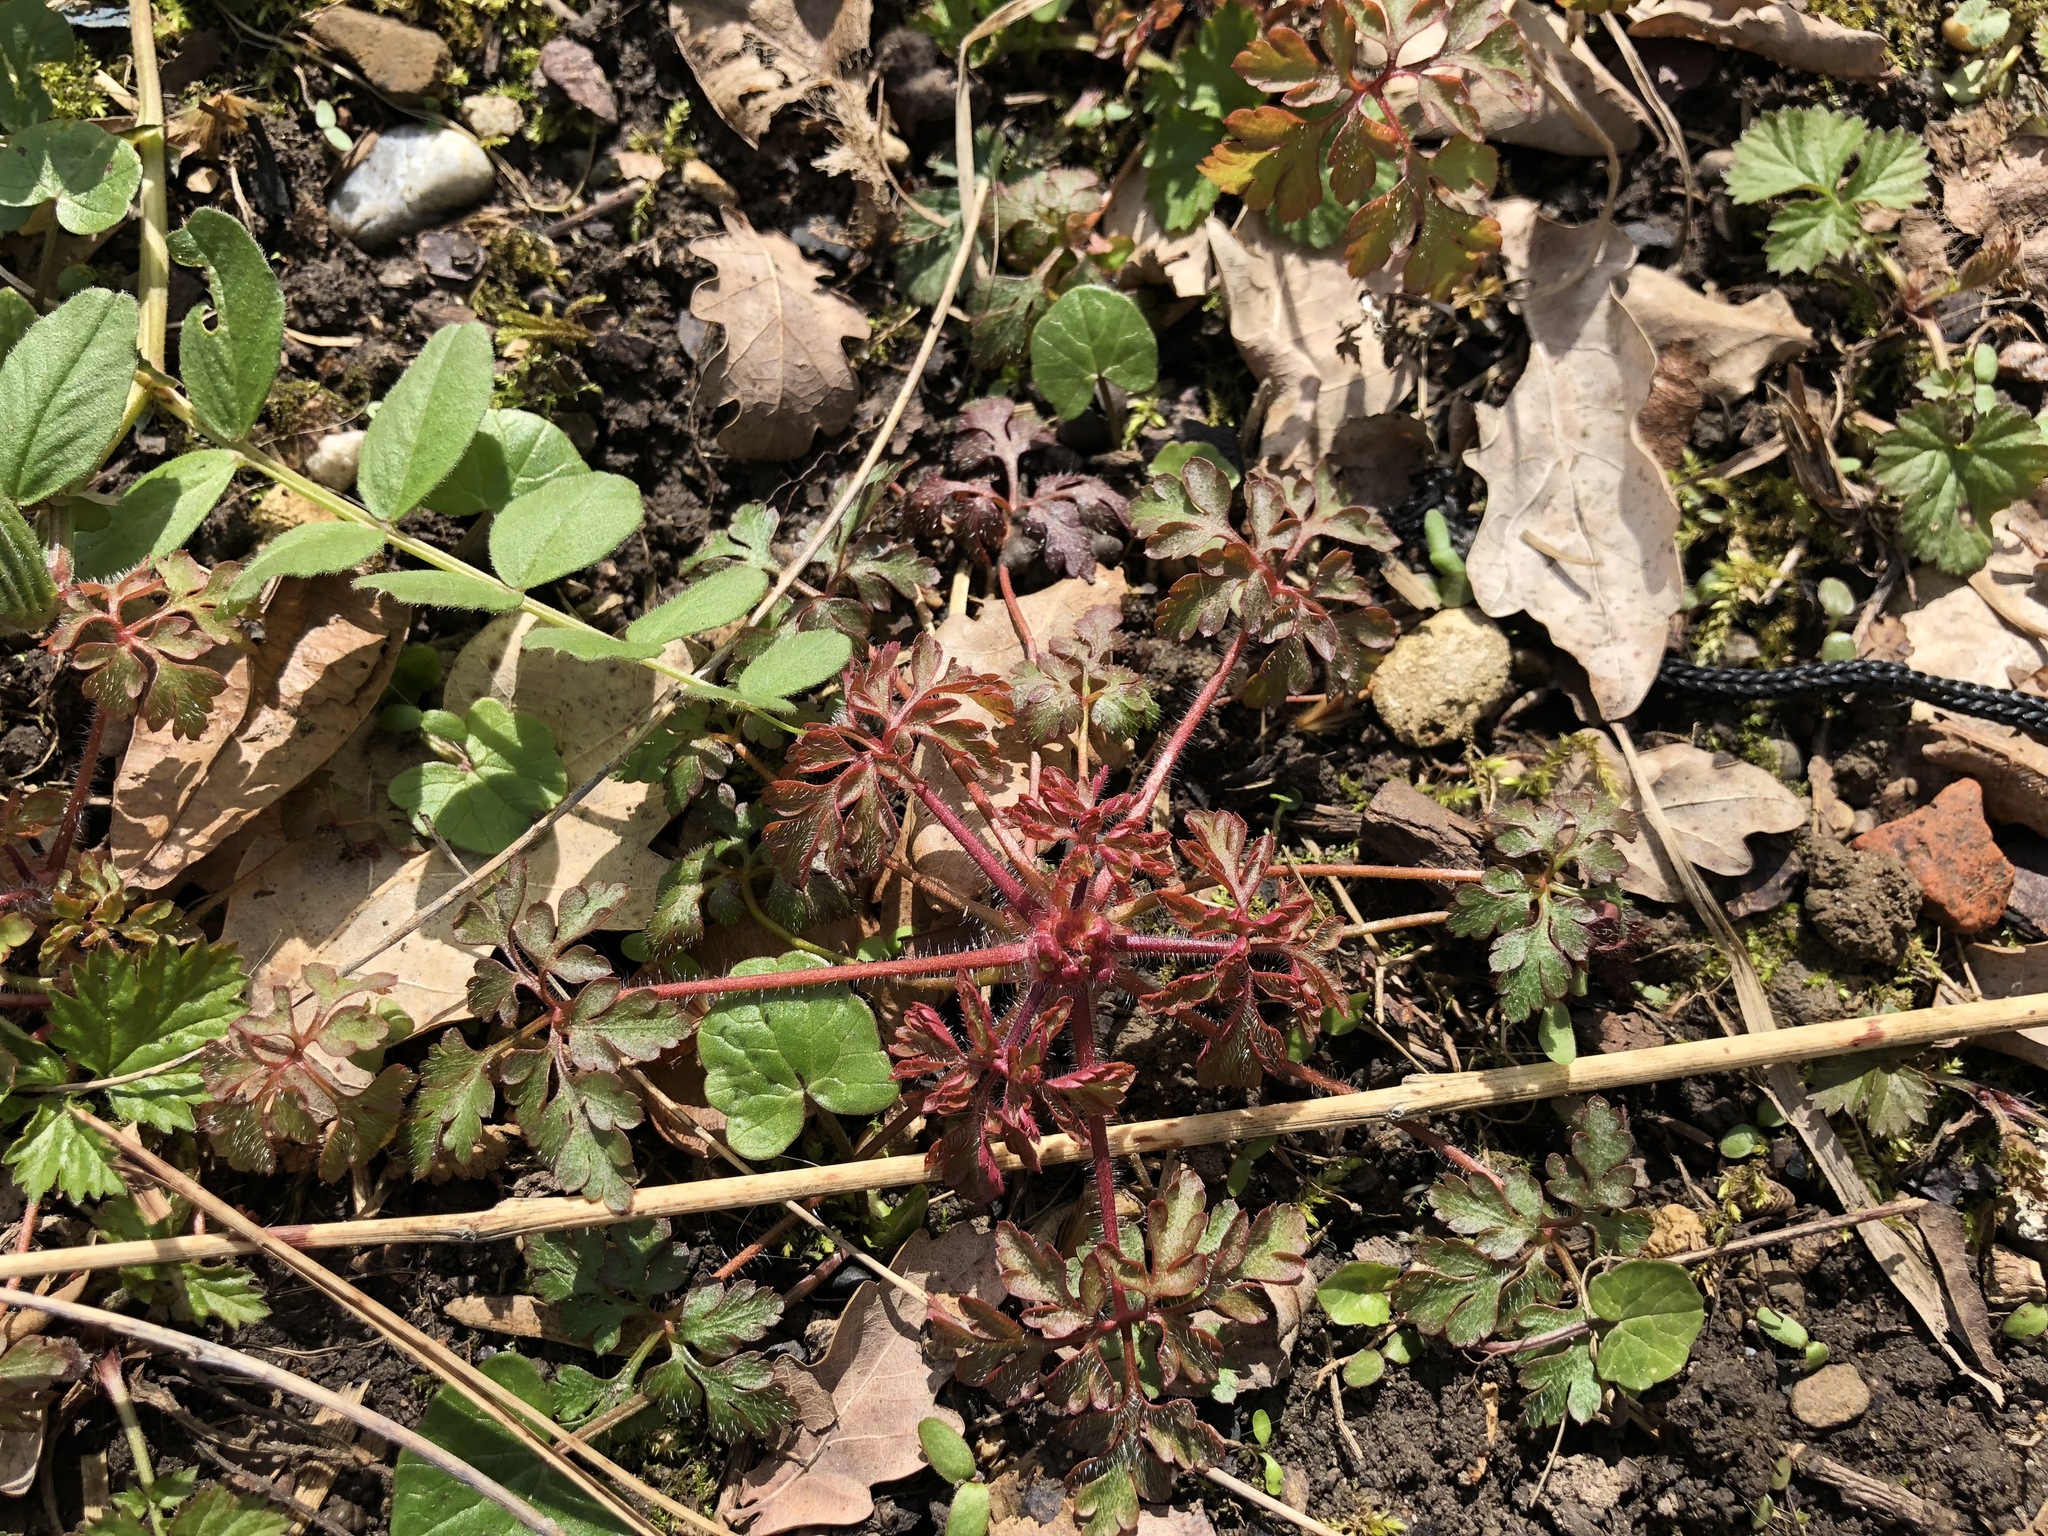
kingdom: Plantae
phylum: Tracheophyta
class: Magnoliopsida
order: Geraniales
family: Geraniaceae
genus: Geranium
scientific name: Geranium robertianum
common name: Herb-robert
